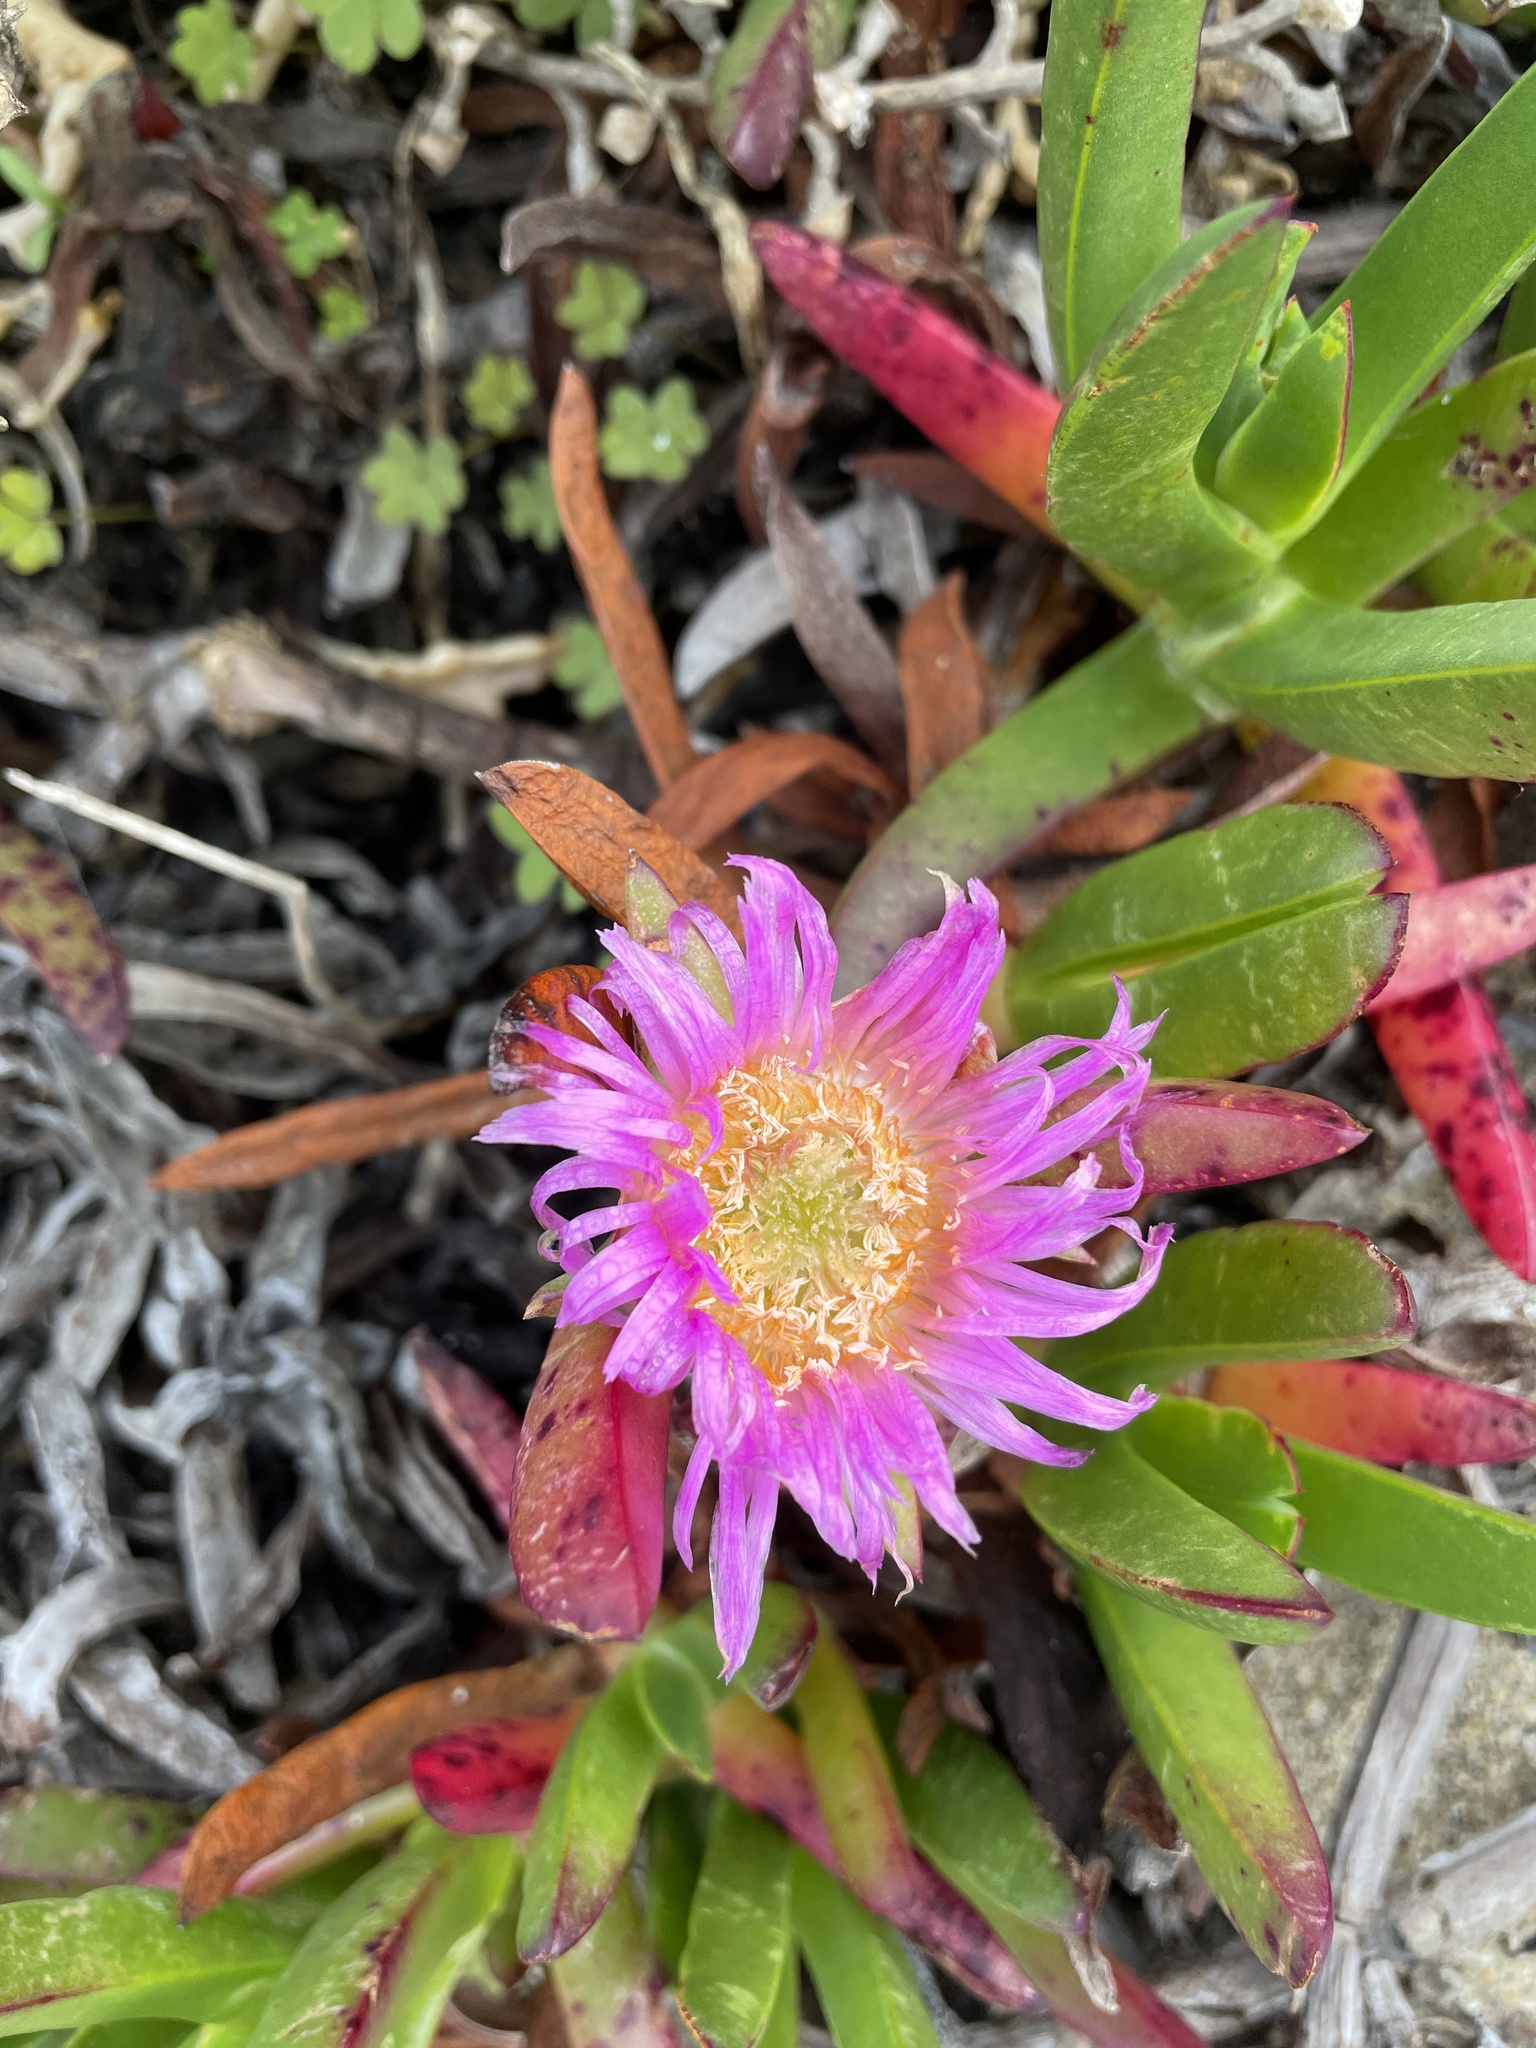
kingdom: Plantae
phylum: Tracheophyta
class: Magnoliopsida
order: Caryophyllales
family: Aizoaceae
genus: Carpobrotus
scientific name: Carpobrotus chilensis
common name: Sea fig
